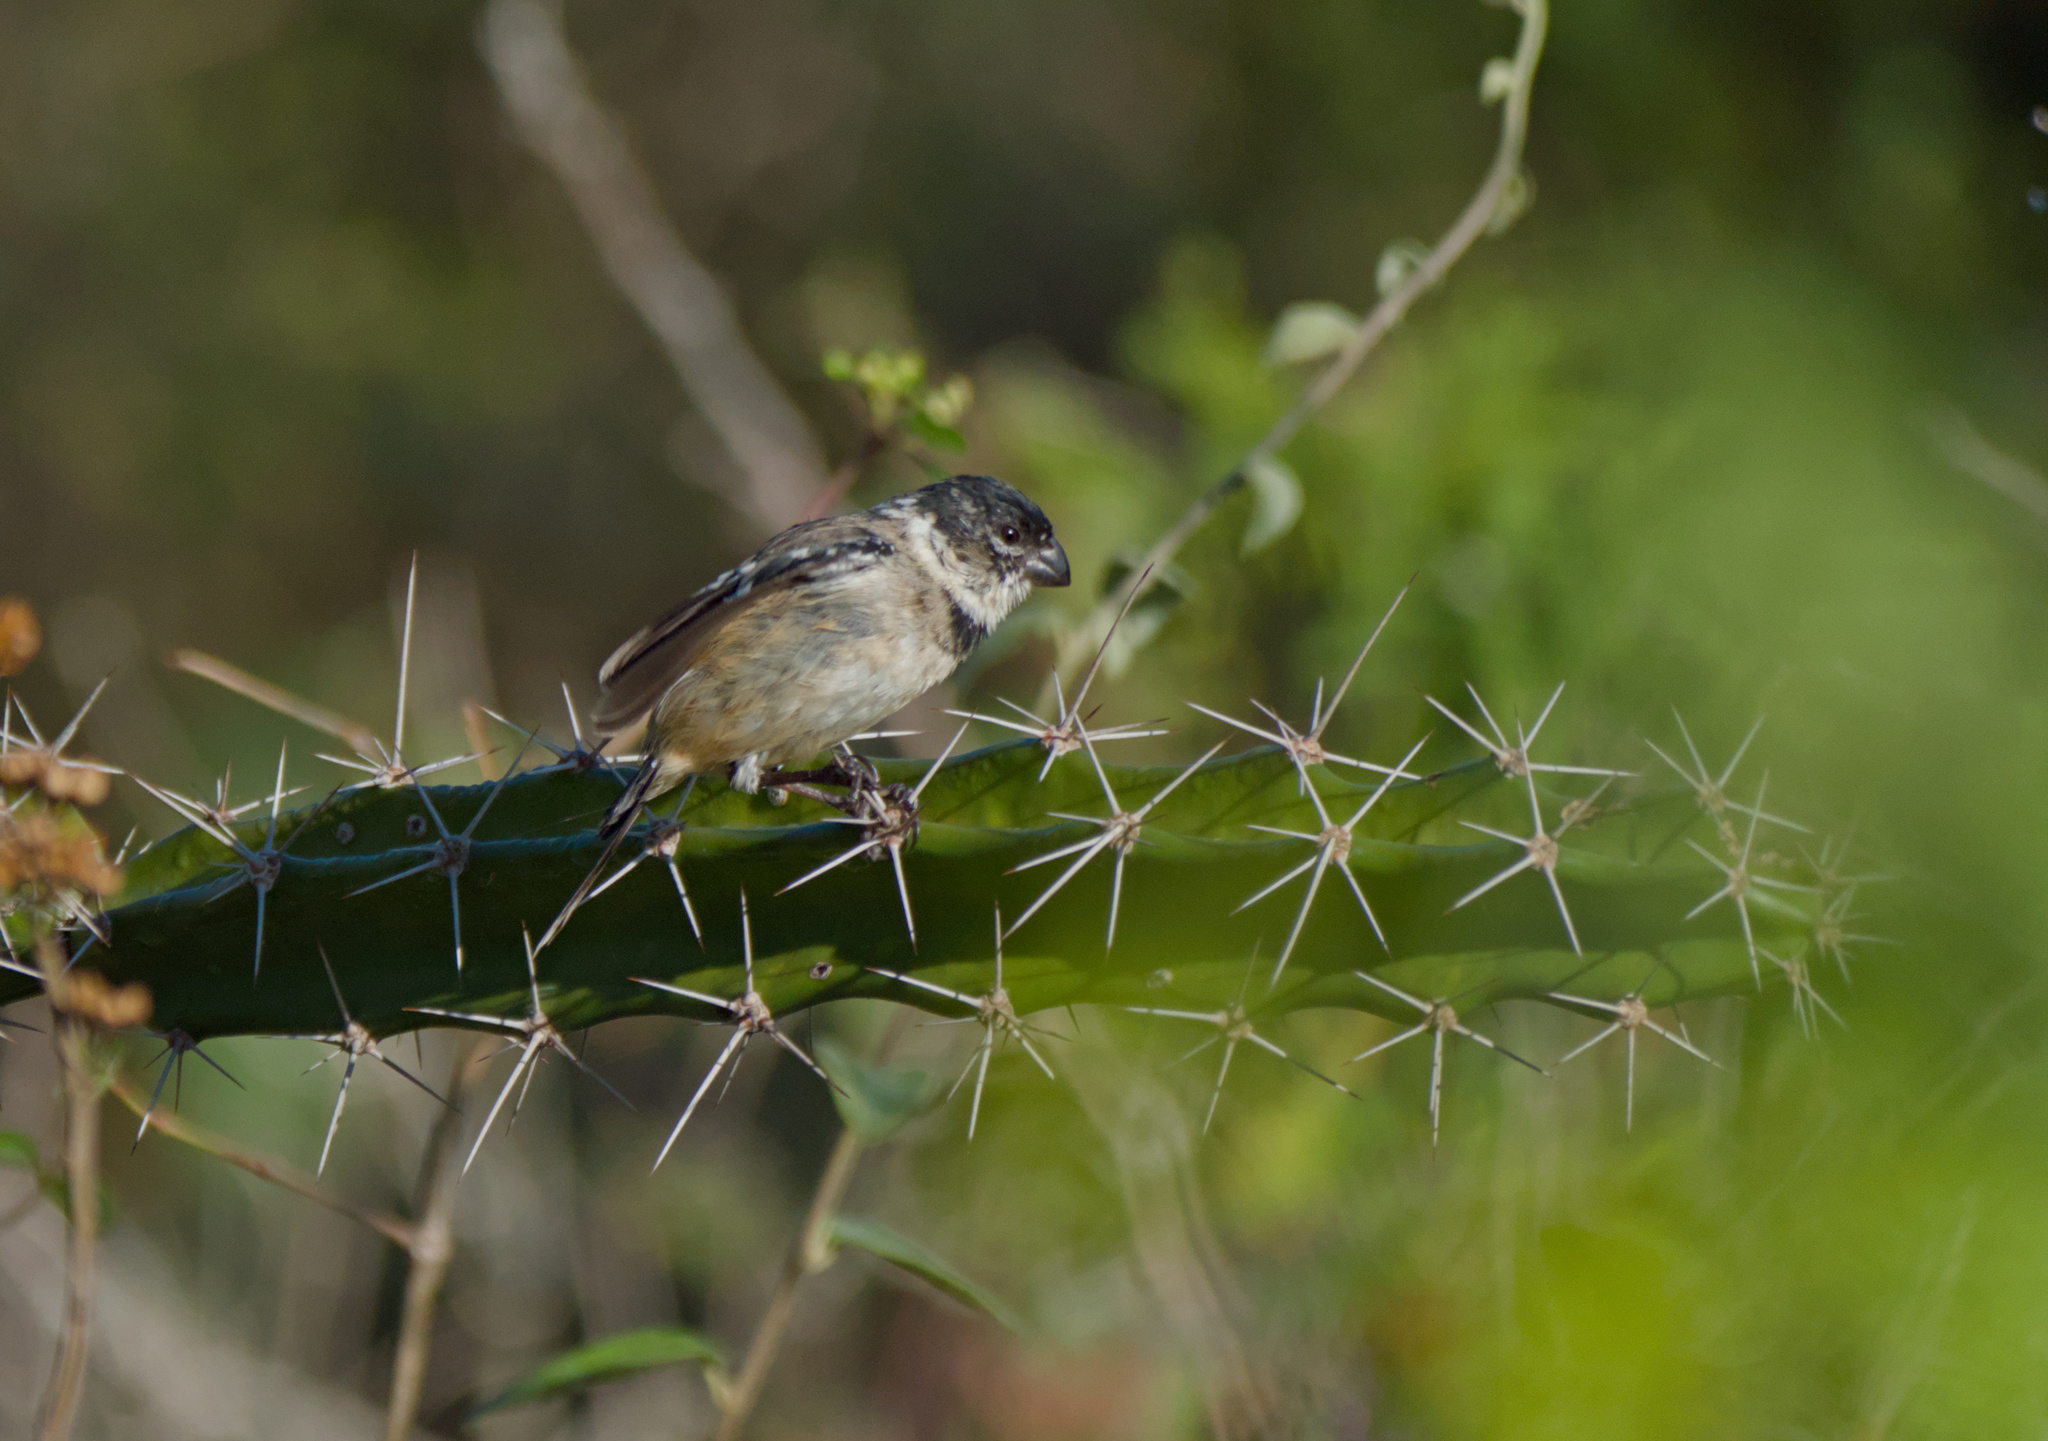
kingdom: Animalia
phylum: Chordata
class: Aves
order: Passeriformes
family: Thraupidae
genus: Sporophila
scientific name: Sporophila morelleti
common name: Morelet's seedeater
